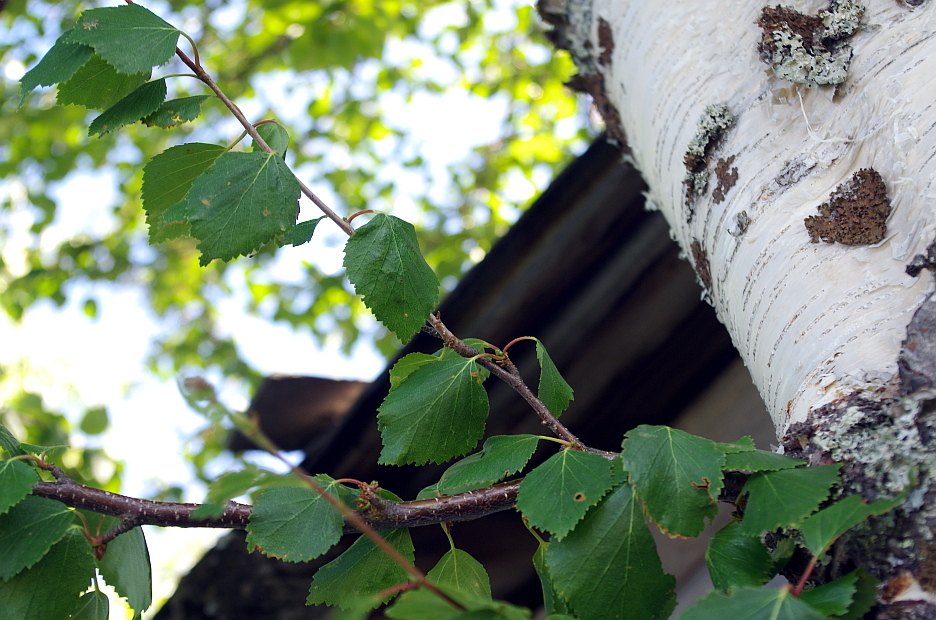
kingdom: Plantae
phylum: Tracheophyta
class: Magnoliopsida
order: Fagales
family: Betulaceae
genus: Betula
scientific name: Betula pendula
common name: Silver birch
